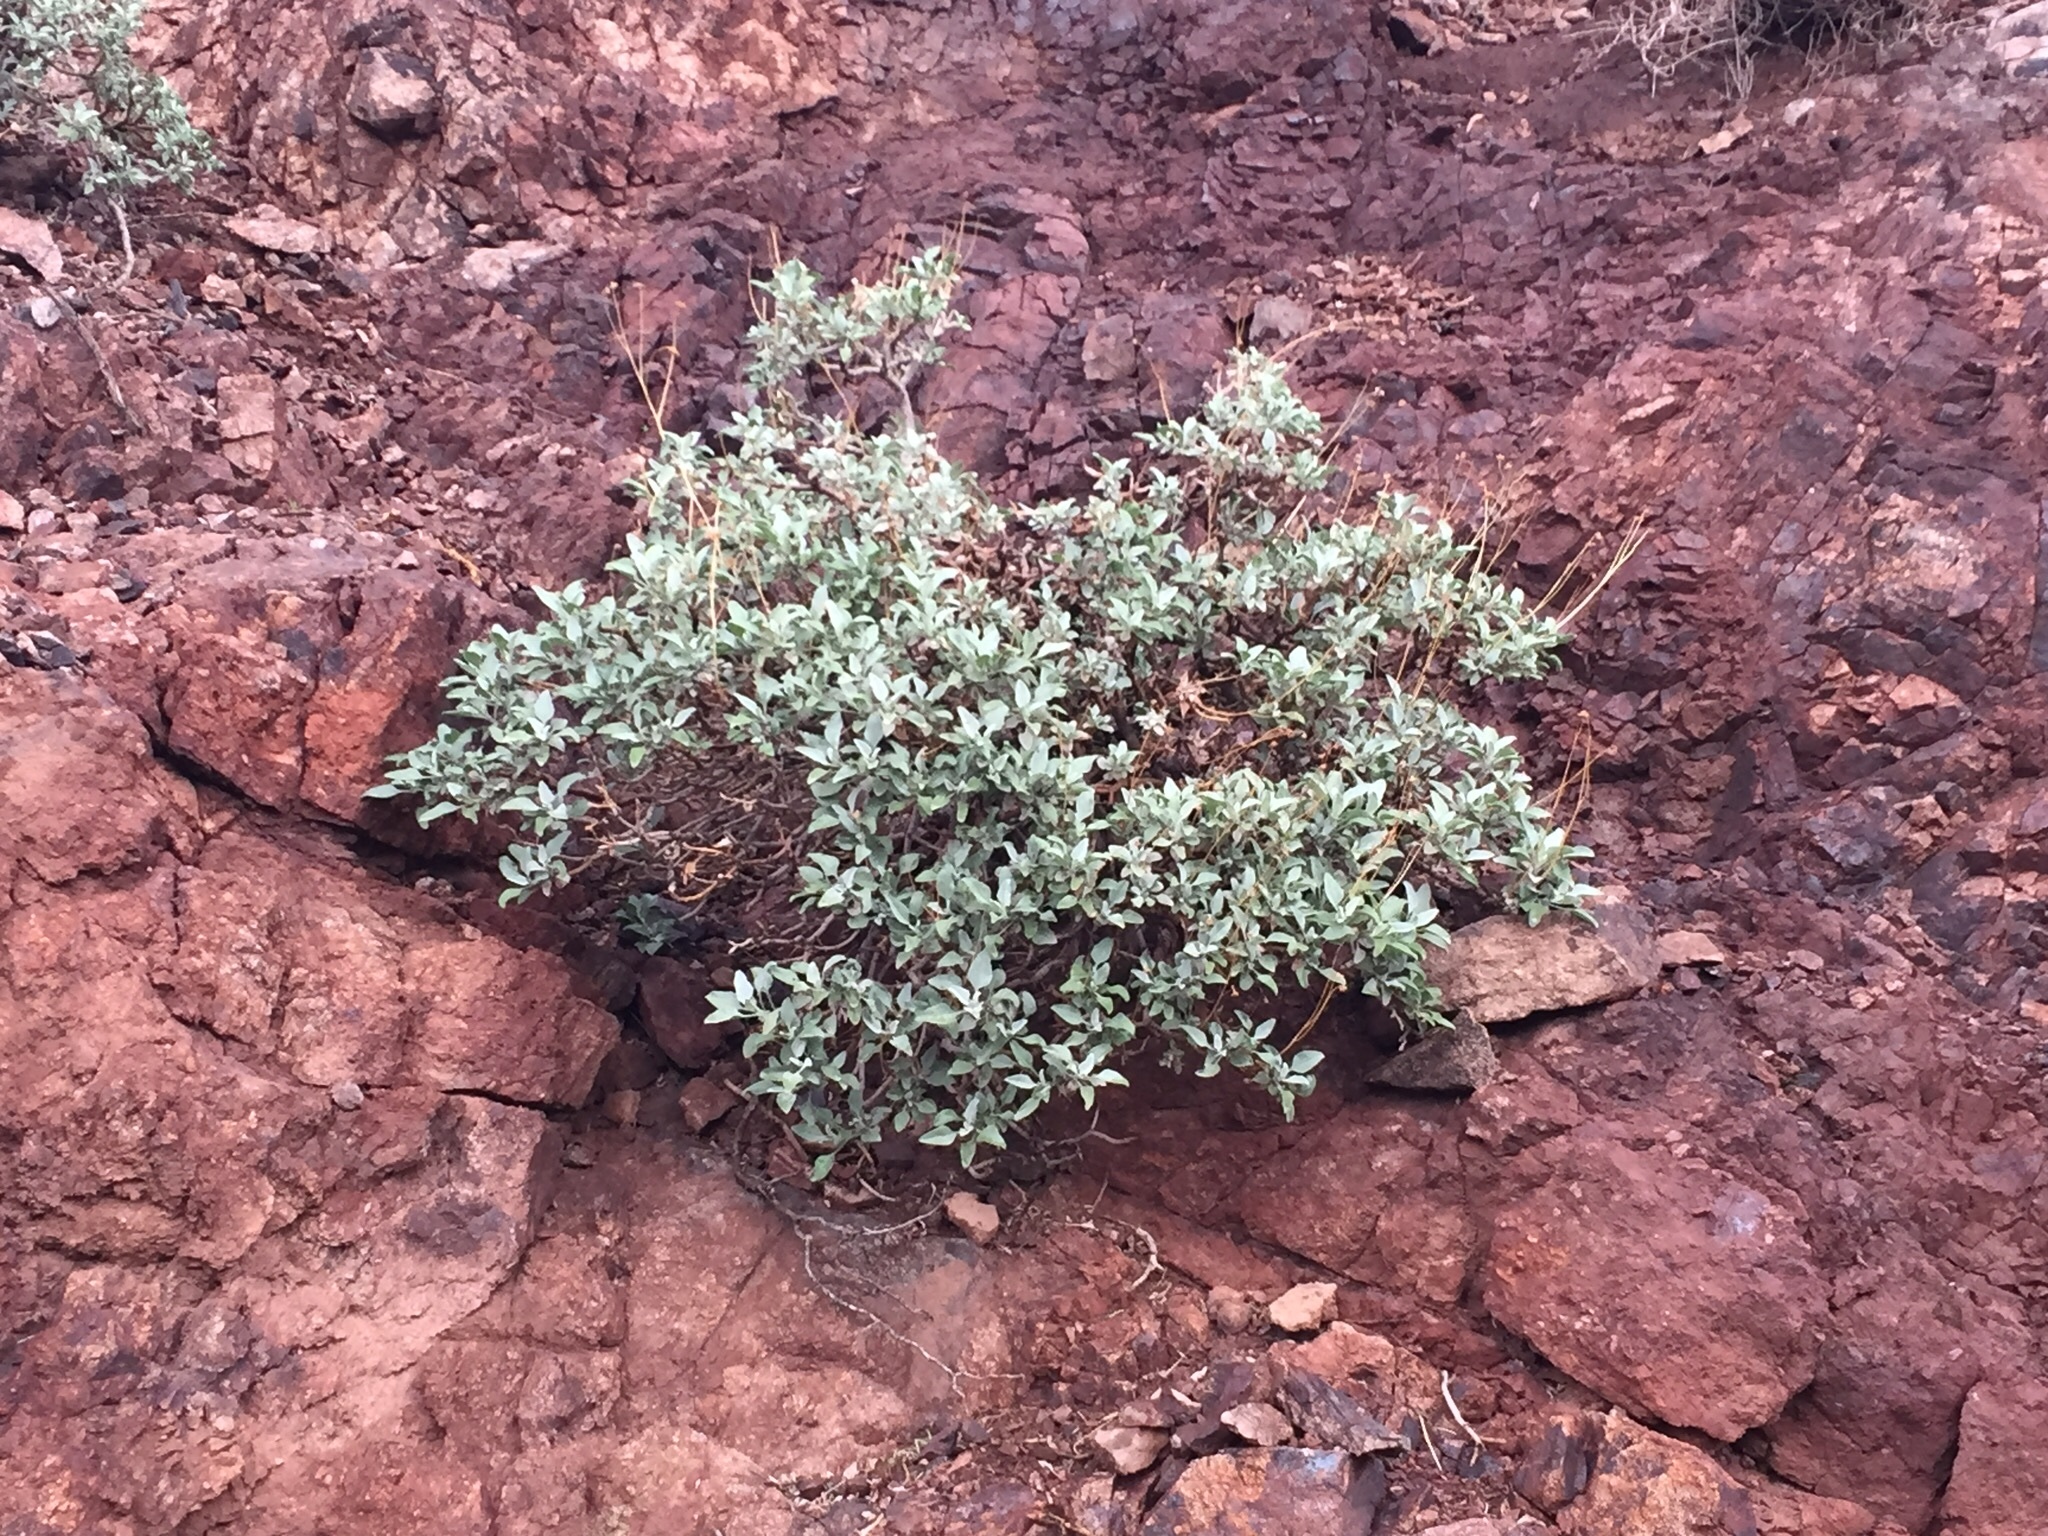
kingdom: Plantae
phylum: Tracheophyta
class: Magnoliopsida
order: Asterales
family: Asteraceae
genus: Encelia
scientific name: Encelia farinosa
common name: Brittlebush
